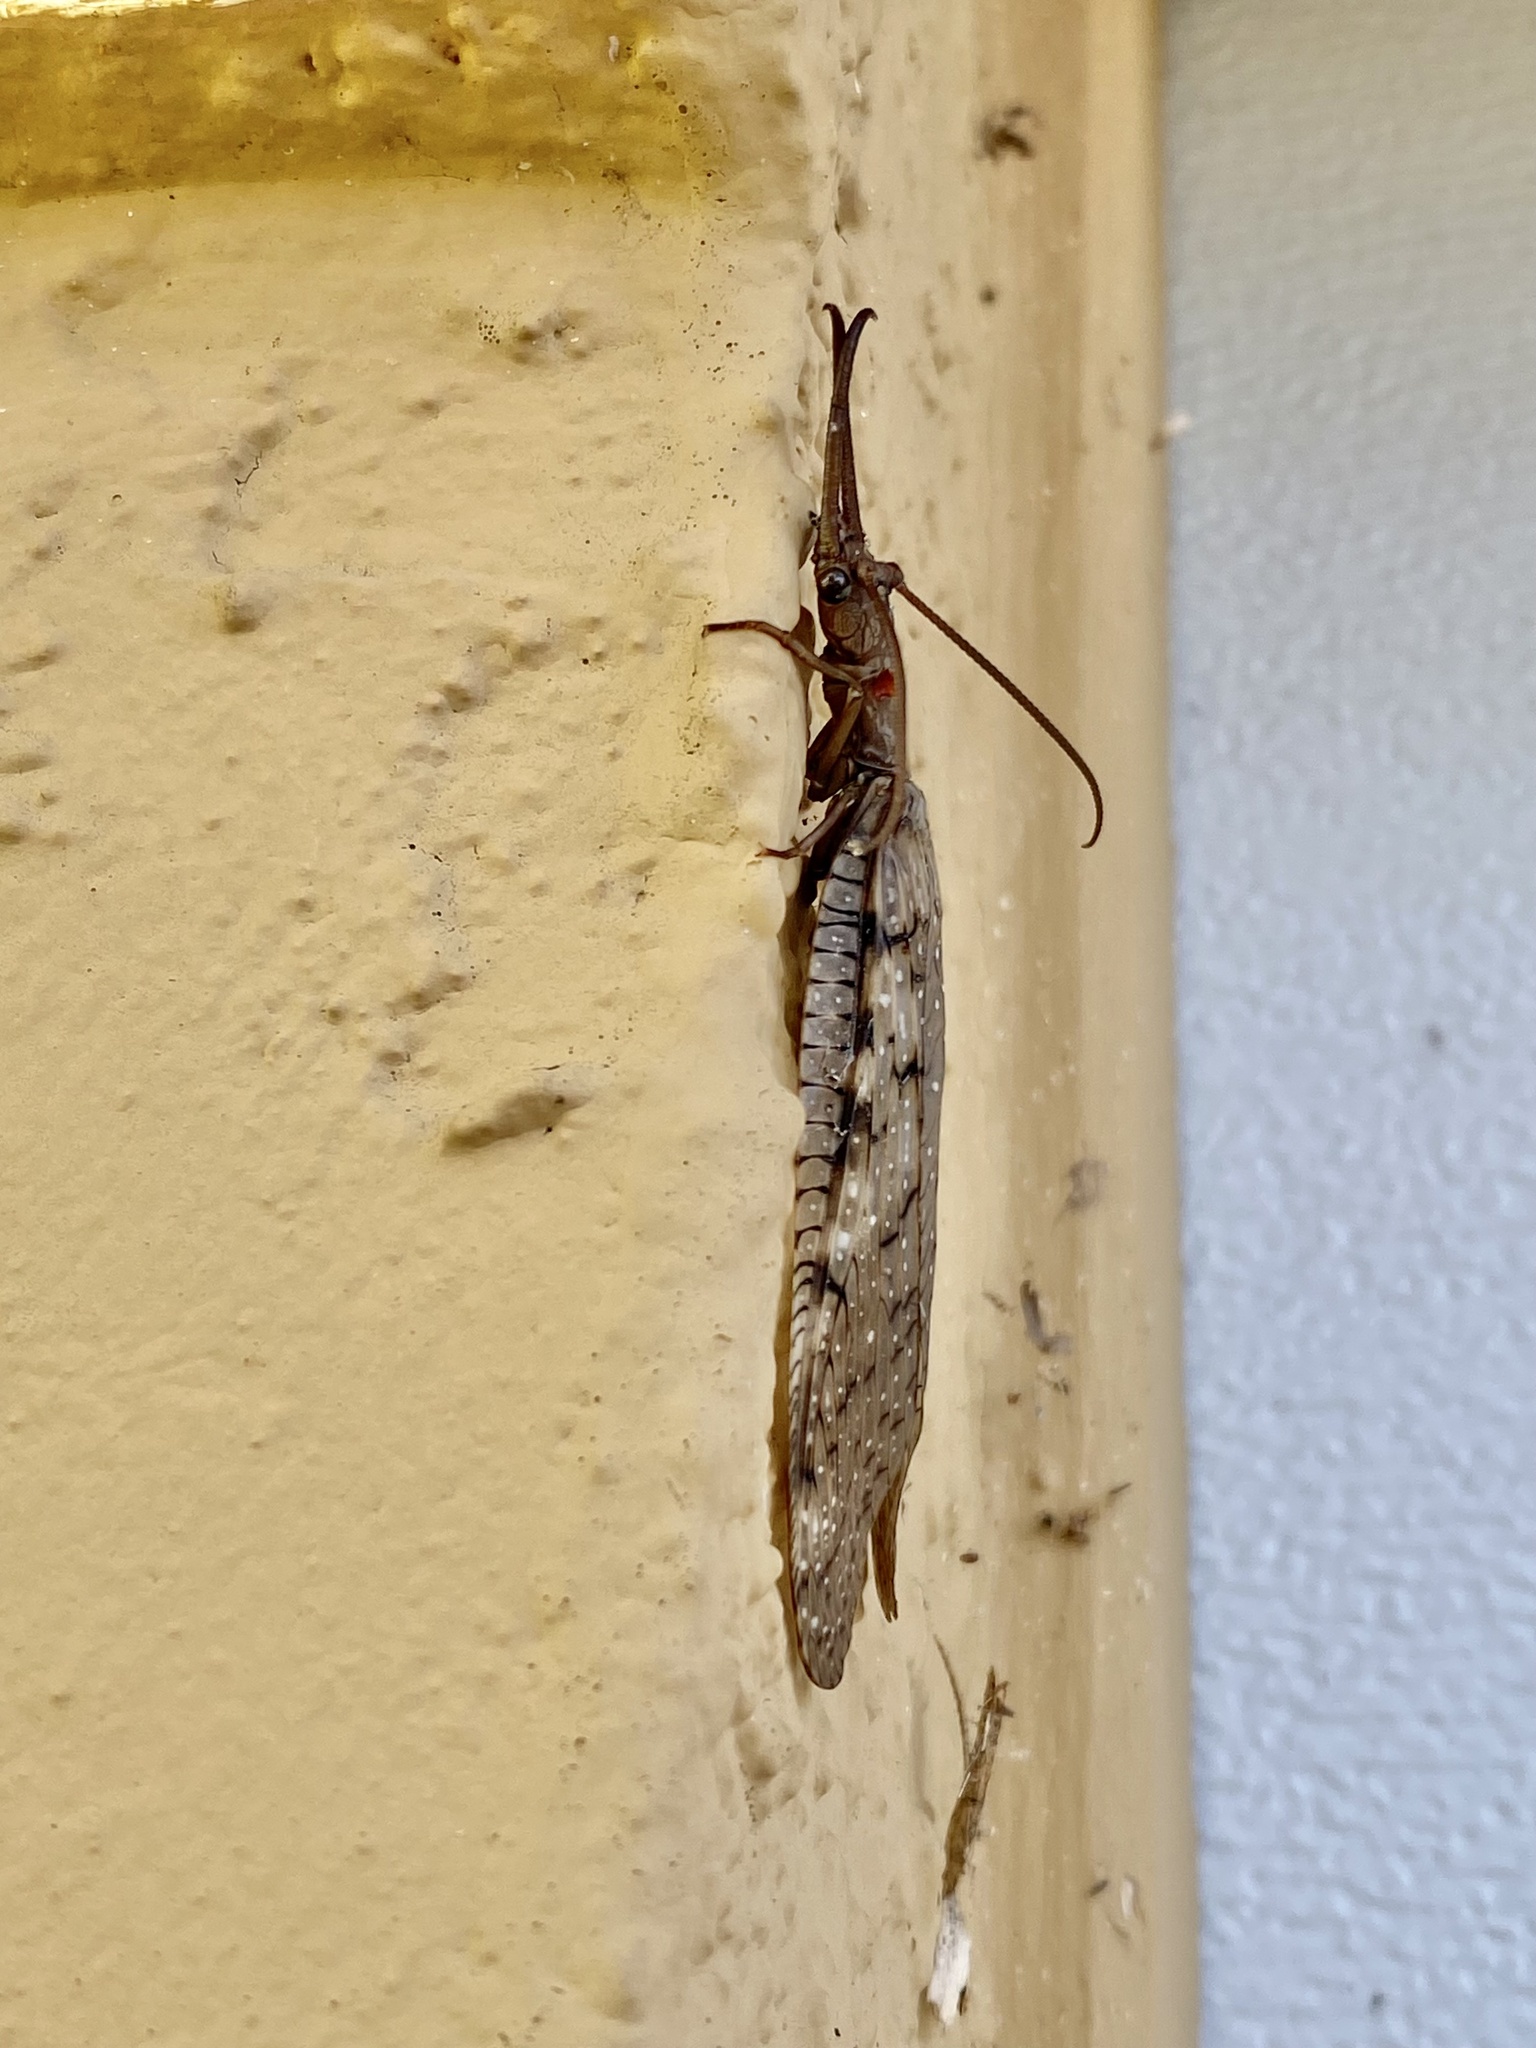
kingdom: Animalia
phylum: Arthropoda
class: Insecta
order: Megaloptera
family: Corydalidae
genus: Corydalus
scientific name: Corydalus cornutus
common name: Dobsonfly
